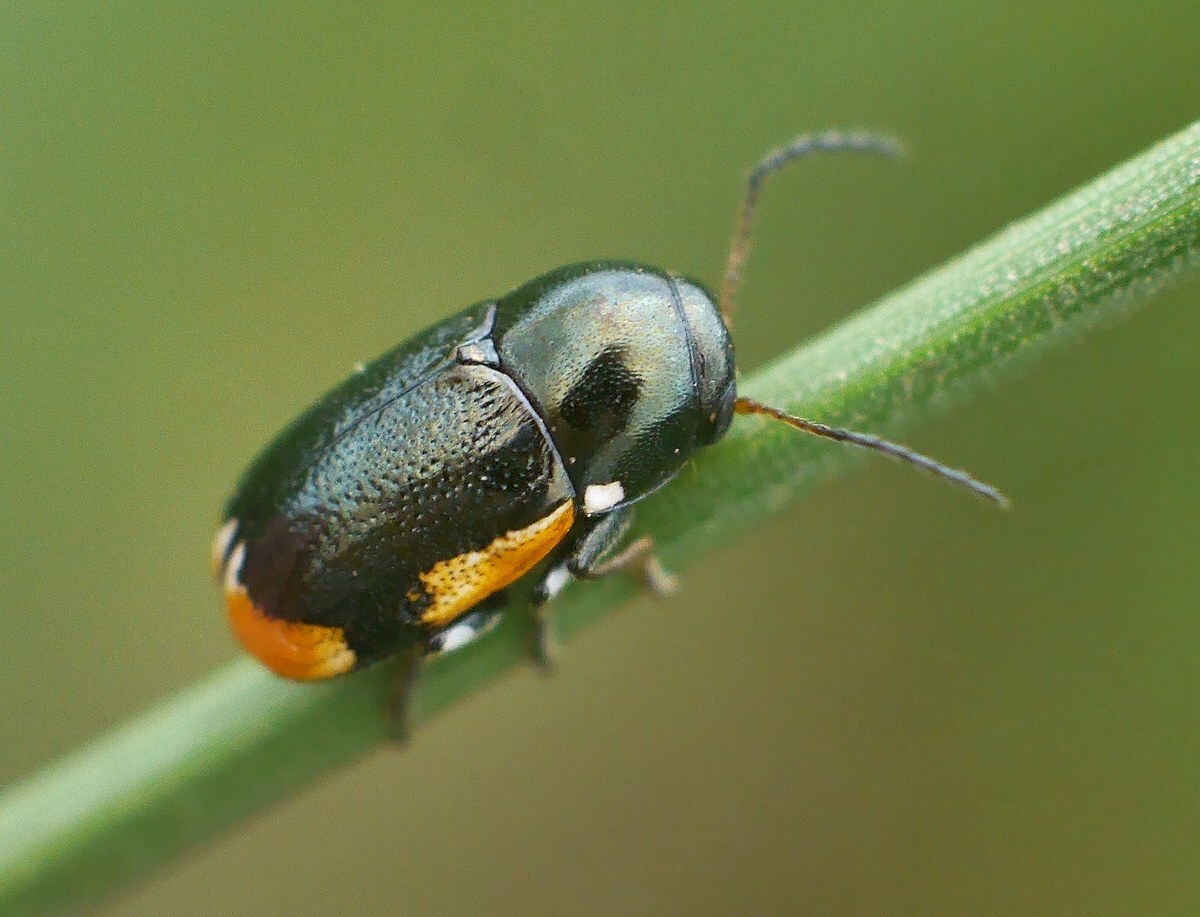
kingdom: Animalia
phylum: Arthropoda
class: Insecta
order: Coleoptera
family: Chrysomelidae
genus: Macromonycha
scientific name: Macromonycha apicalis
